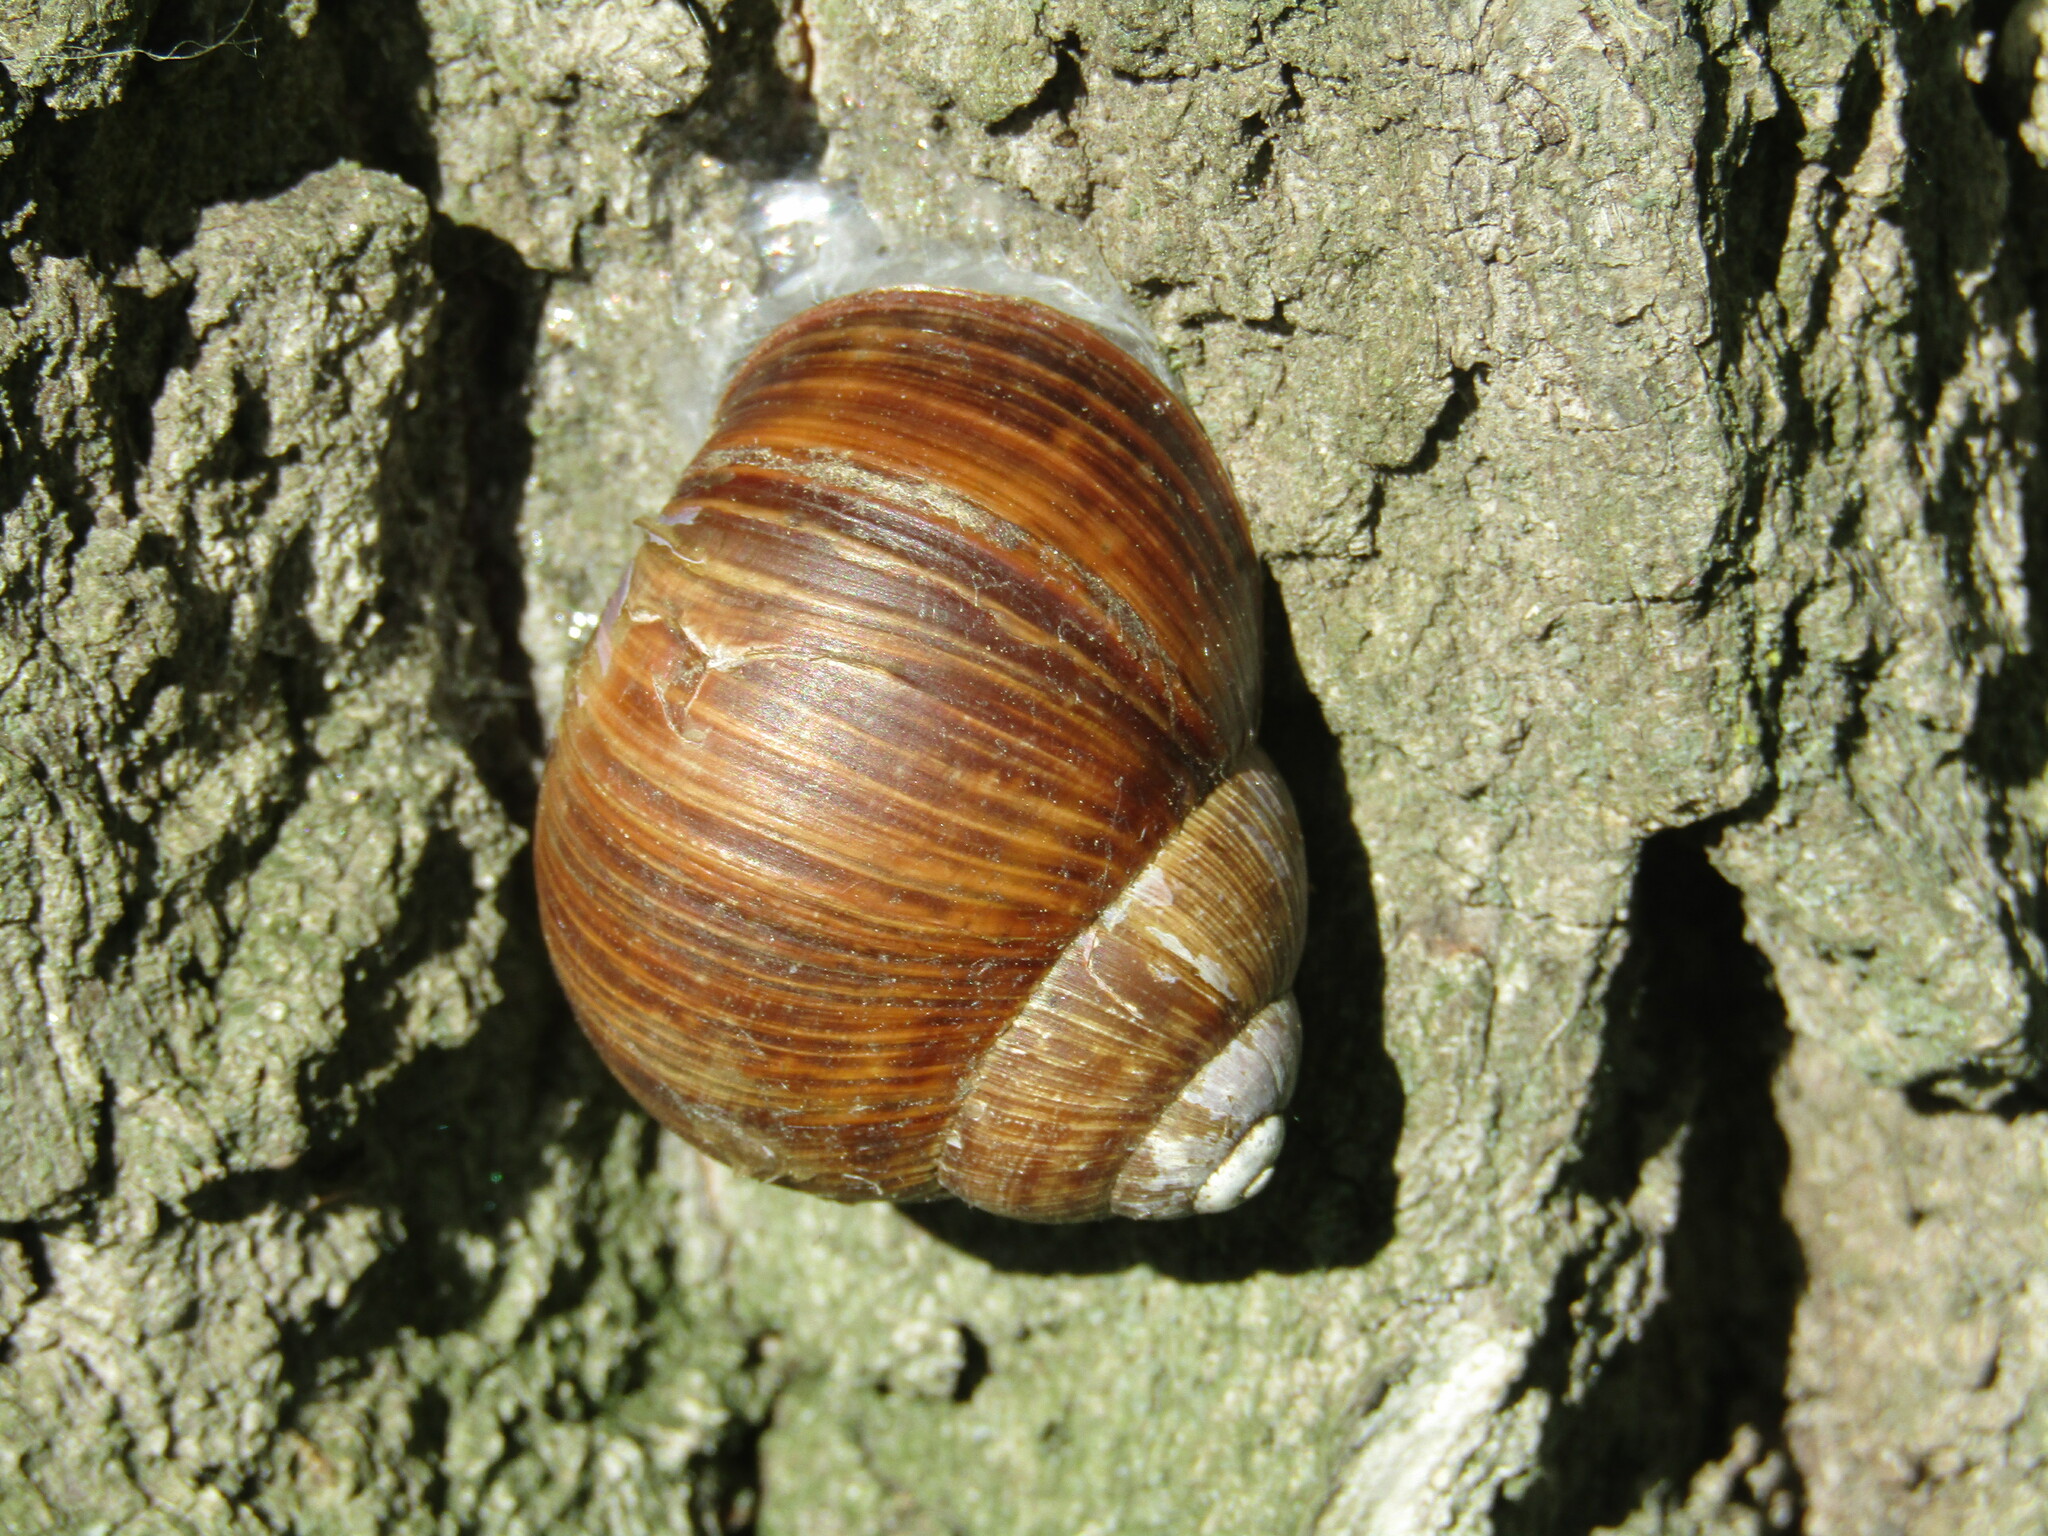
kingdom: Animalia
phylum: Mollusca
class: Gastropoda
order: Stylommatophora
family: Helicidae
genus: Helix
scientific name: Helix pomatia
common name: Roman snail
